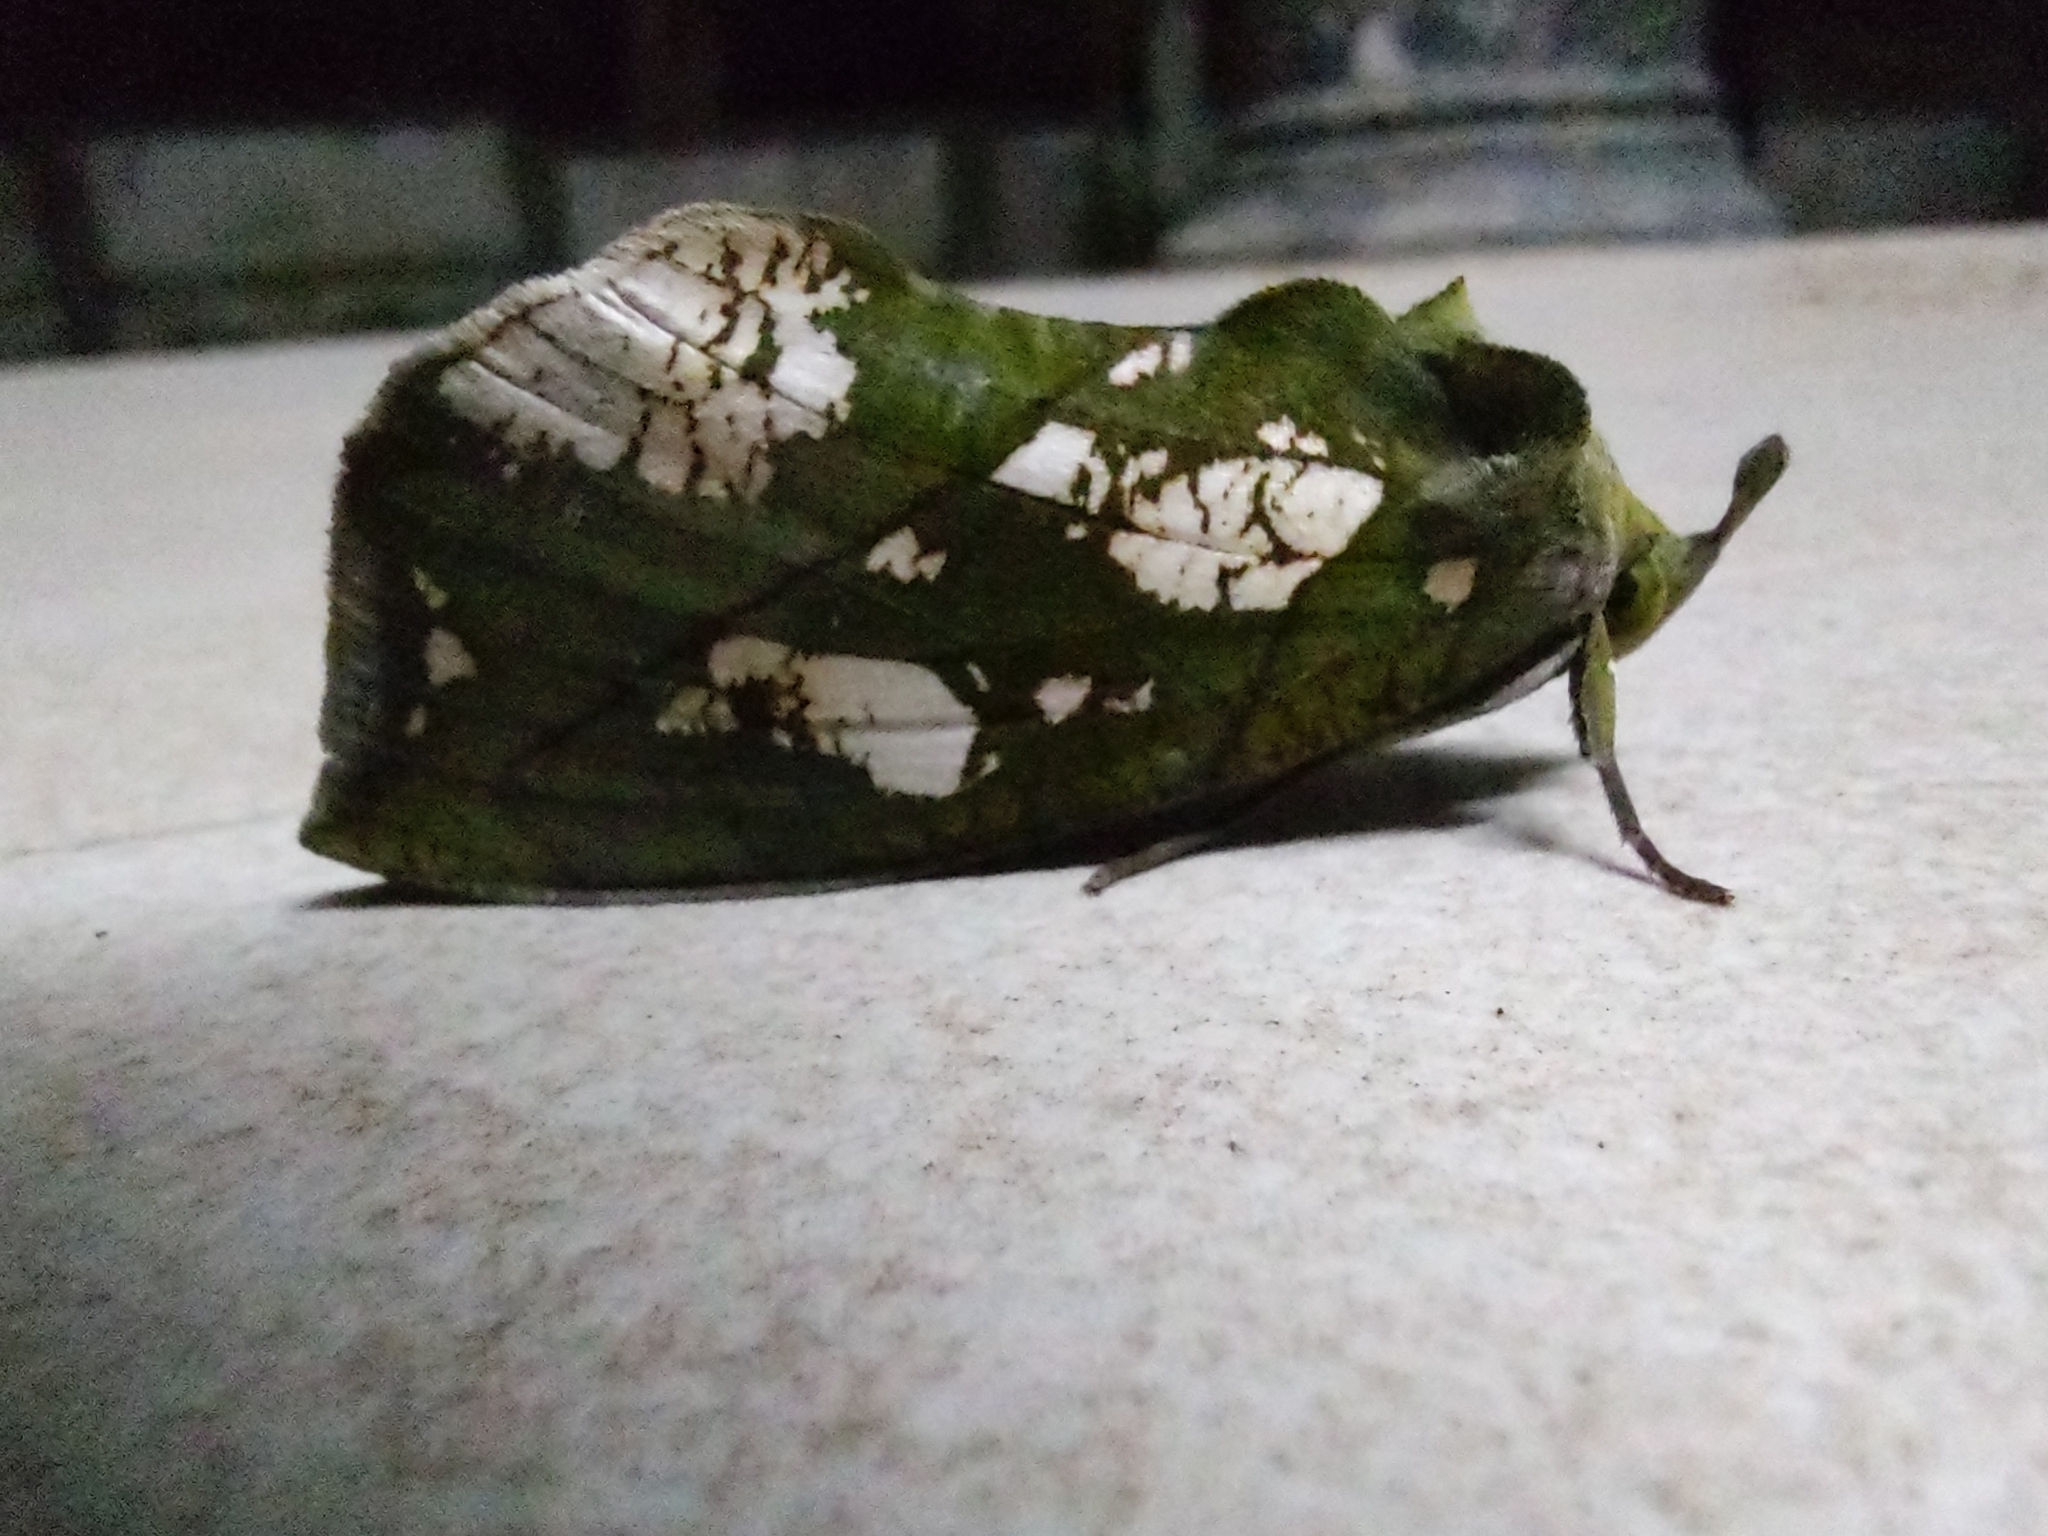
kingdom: Animalia
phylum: Arthropoda
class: Insecta
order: Lepidoptera
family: Erebidae
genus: Eudocima
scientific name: Eudocima hypermnestra
